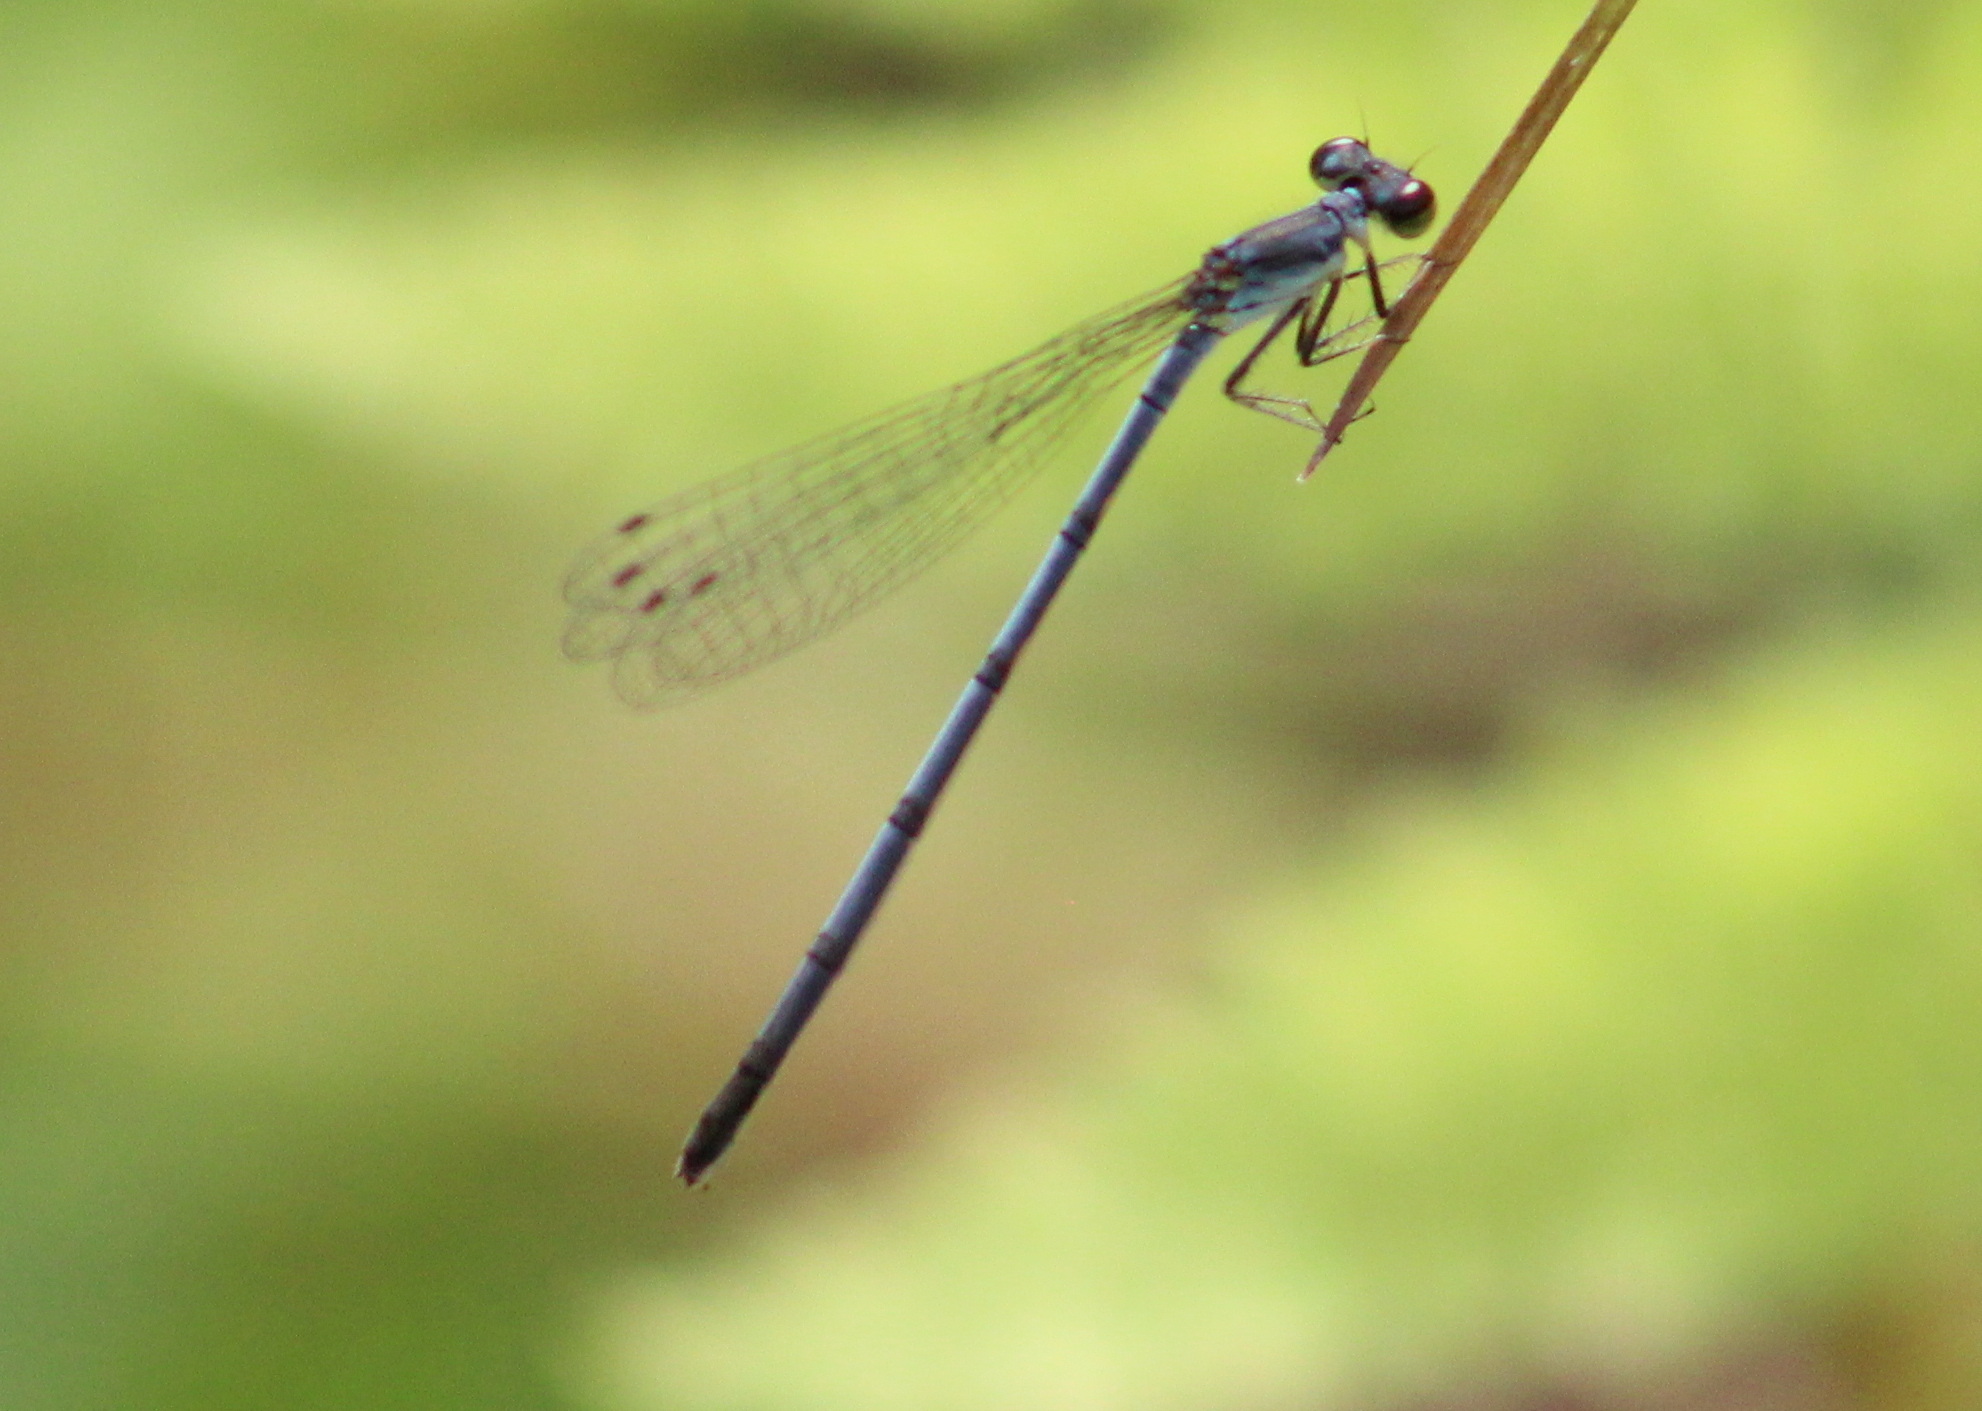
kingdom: Animalia
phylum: Arthropoda
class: Insecta
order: Odonata
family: Coenagrionidae
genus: Ischnura
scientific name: Ischnura posita
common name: Fragile forktail
